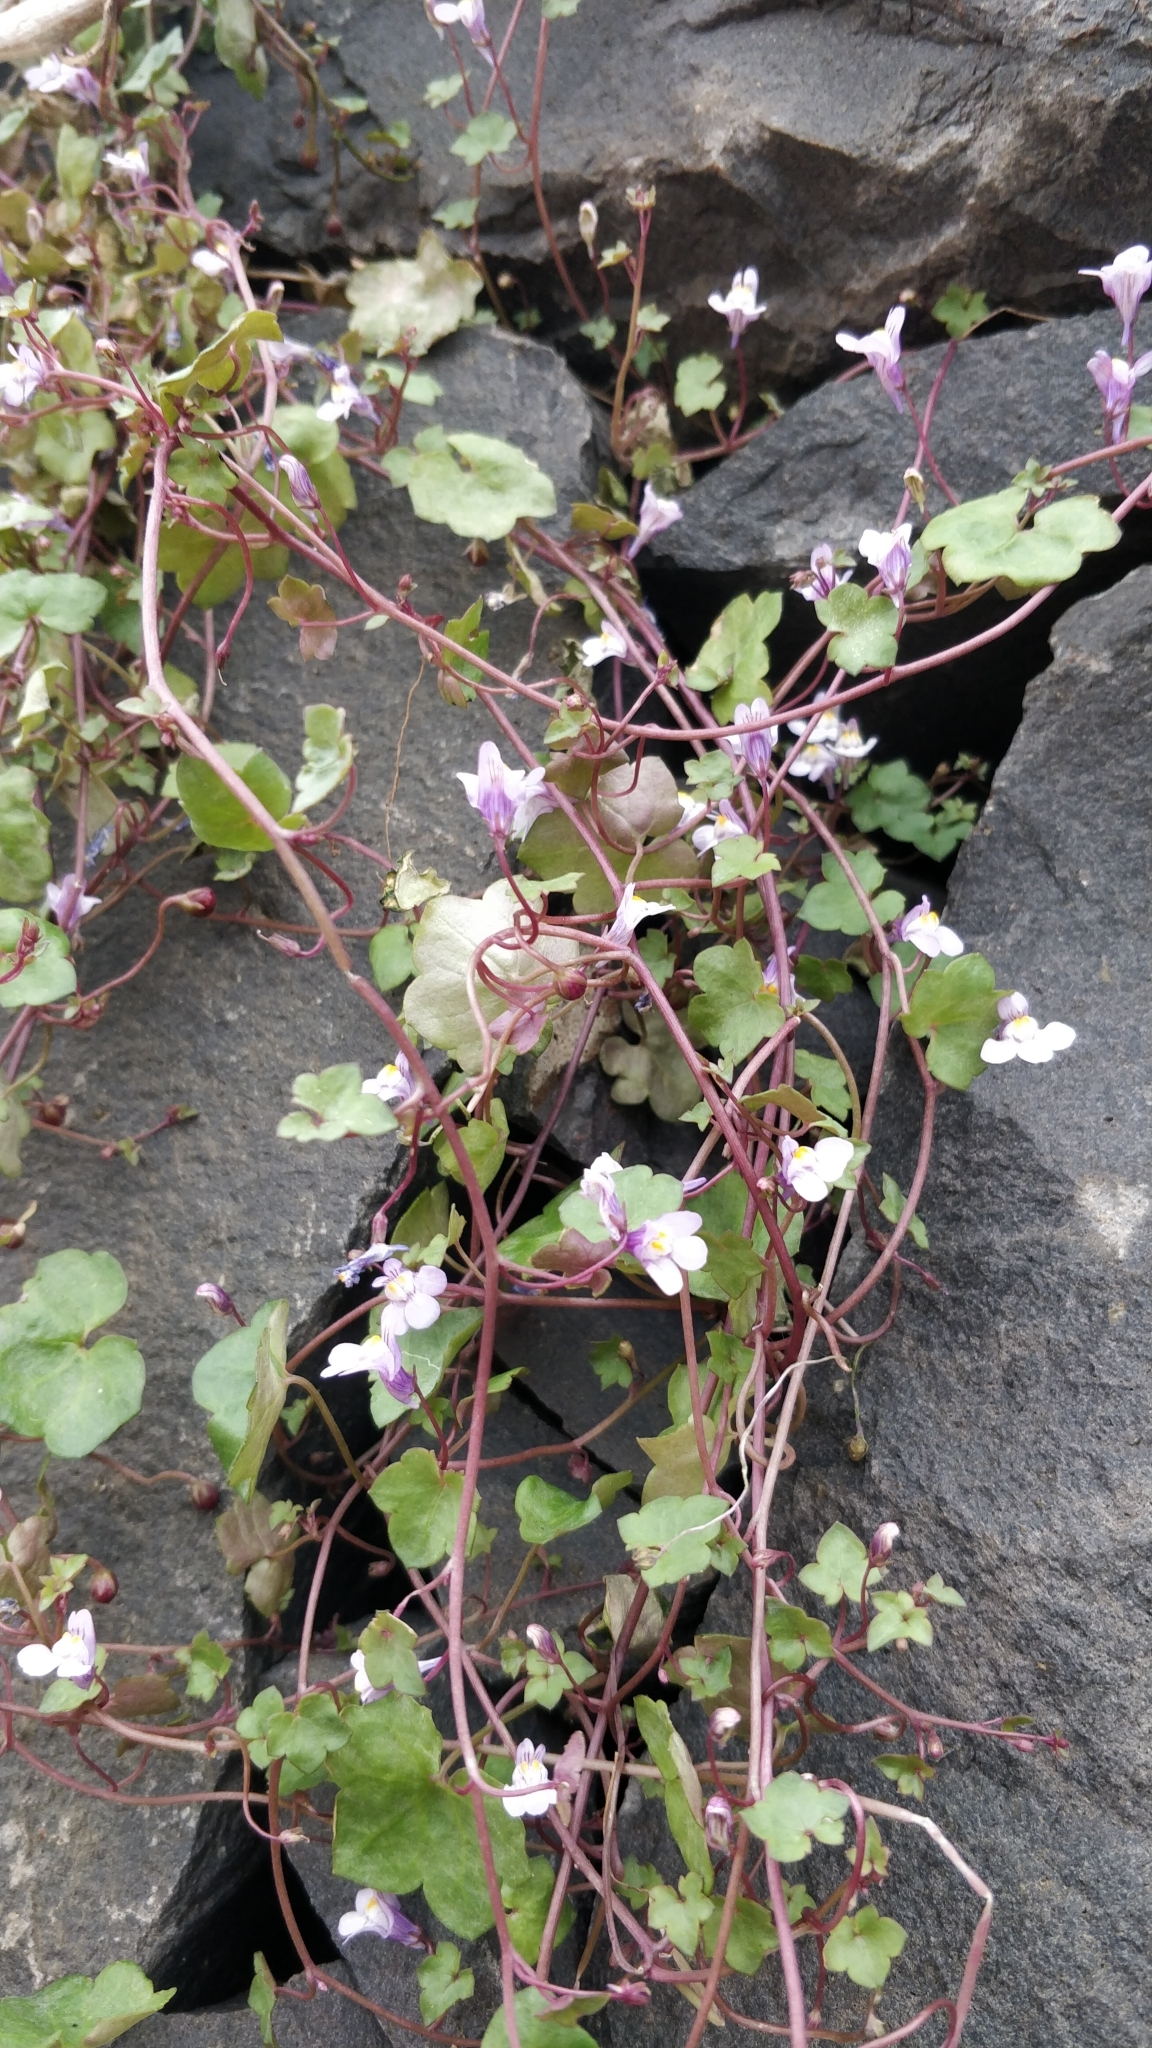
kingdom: Plantae
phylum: Tracheophyta
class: Magnoliopsida
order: Lamiales
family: Plantaginaceae
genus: Cymbalaria
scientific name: Cymbalaria muralis
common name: Ivy-leaved toadflax
